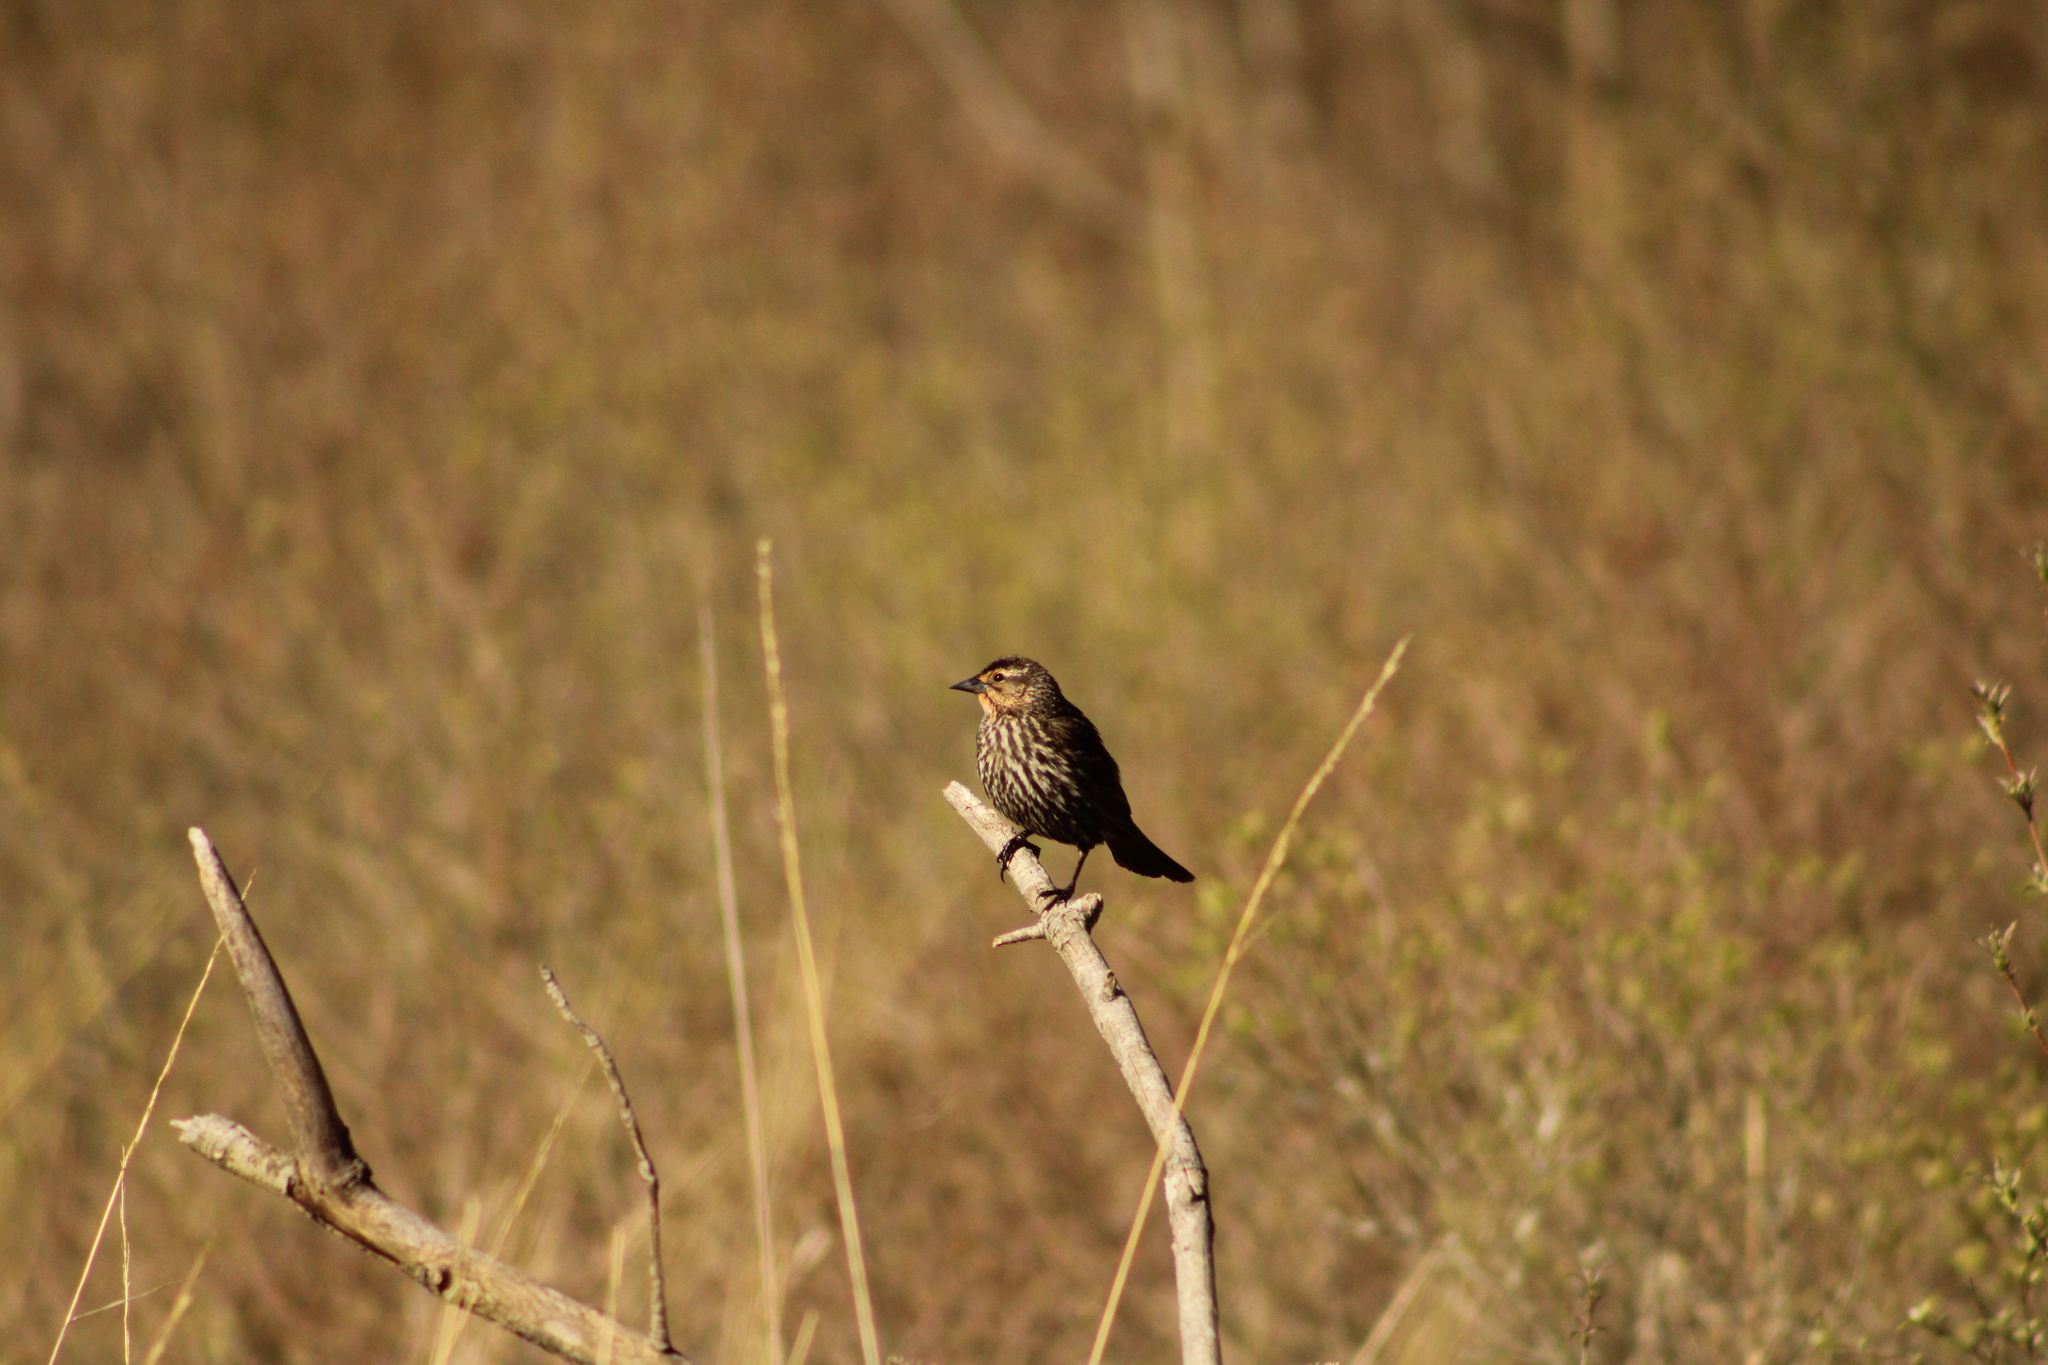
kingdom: Animalia
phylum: Chordata
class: Aves
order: Passeriformes
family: Icteridae
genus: Agelaius
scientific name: Agelaius phoeniceus
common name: Red-winged blackbird
